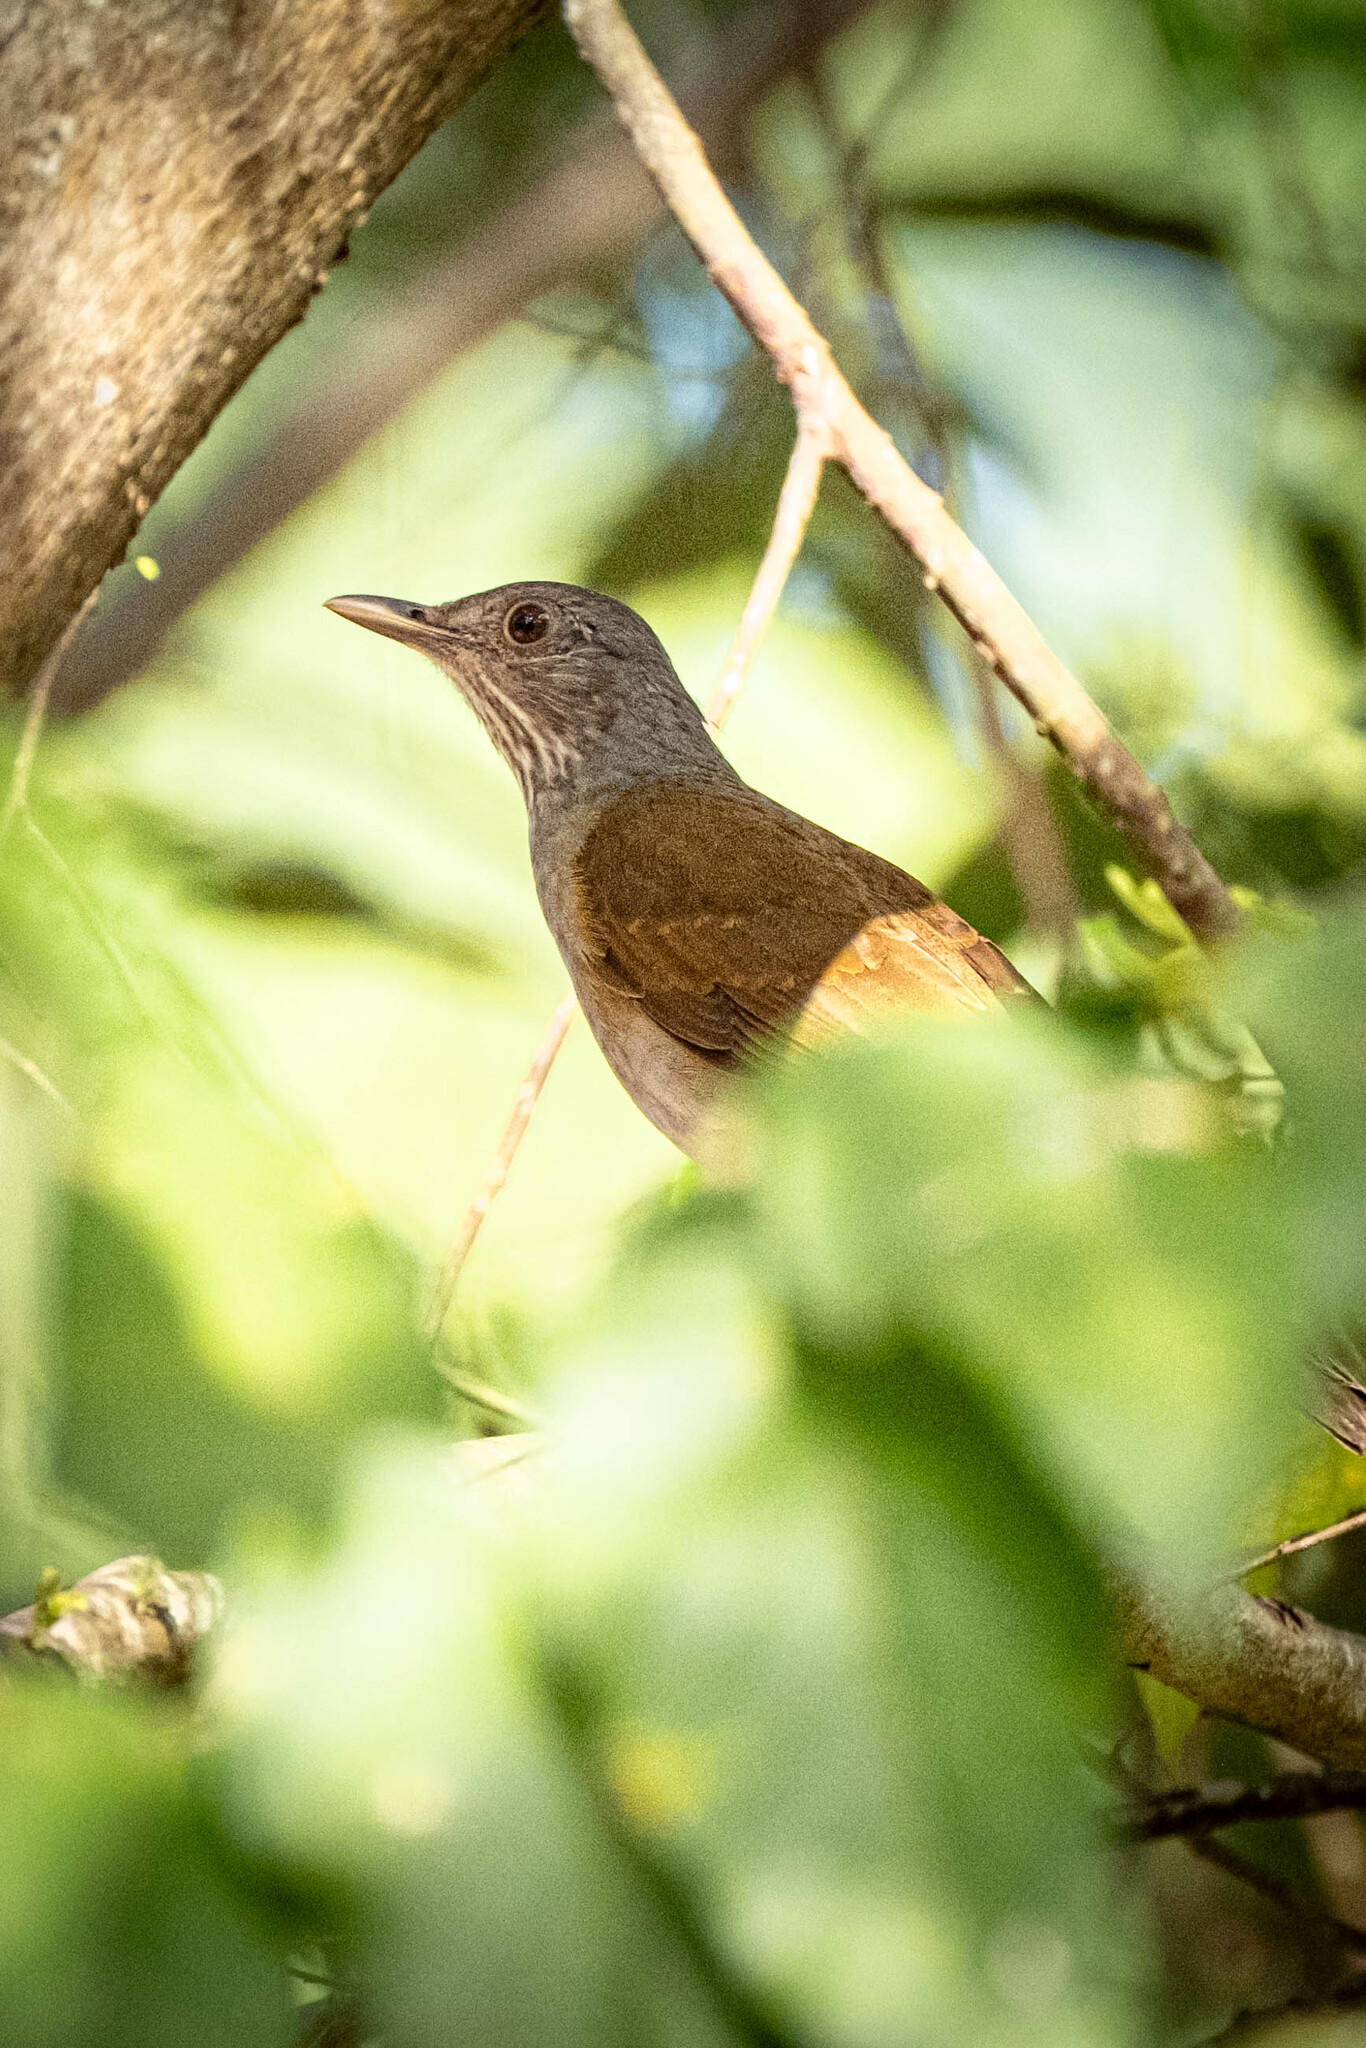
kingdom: Animalia
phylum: Chordata
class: Aves
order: Passeriformes
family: Turdidae
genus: Turdus
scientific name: Turdus leucomelas
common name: Pale-breasted thrush
